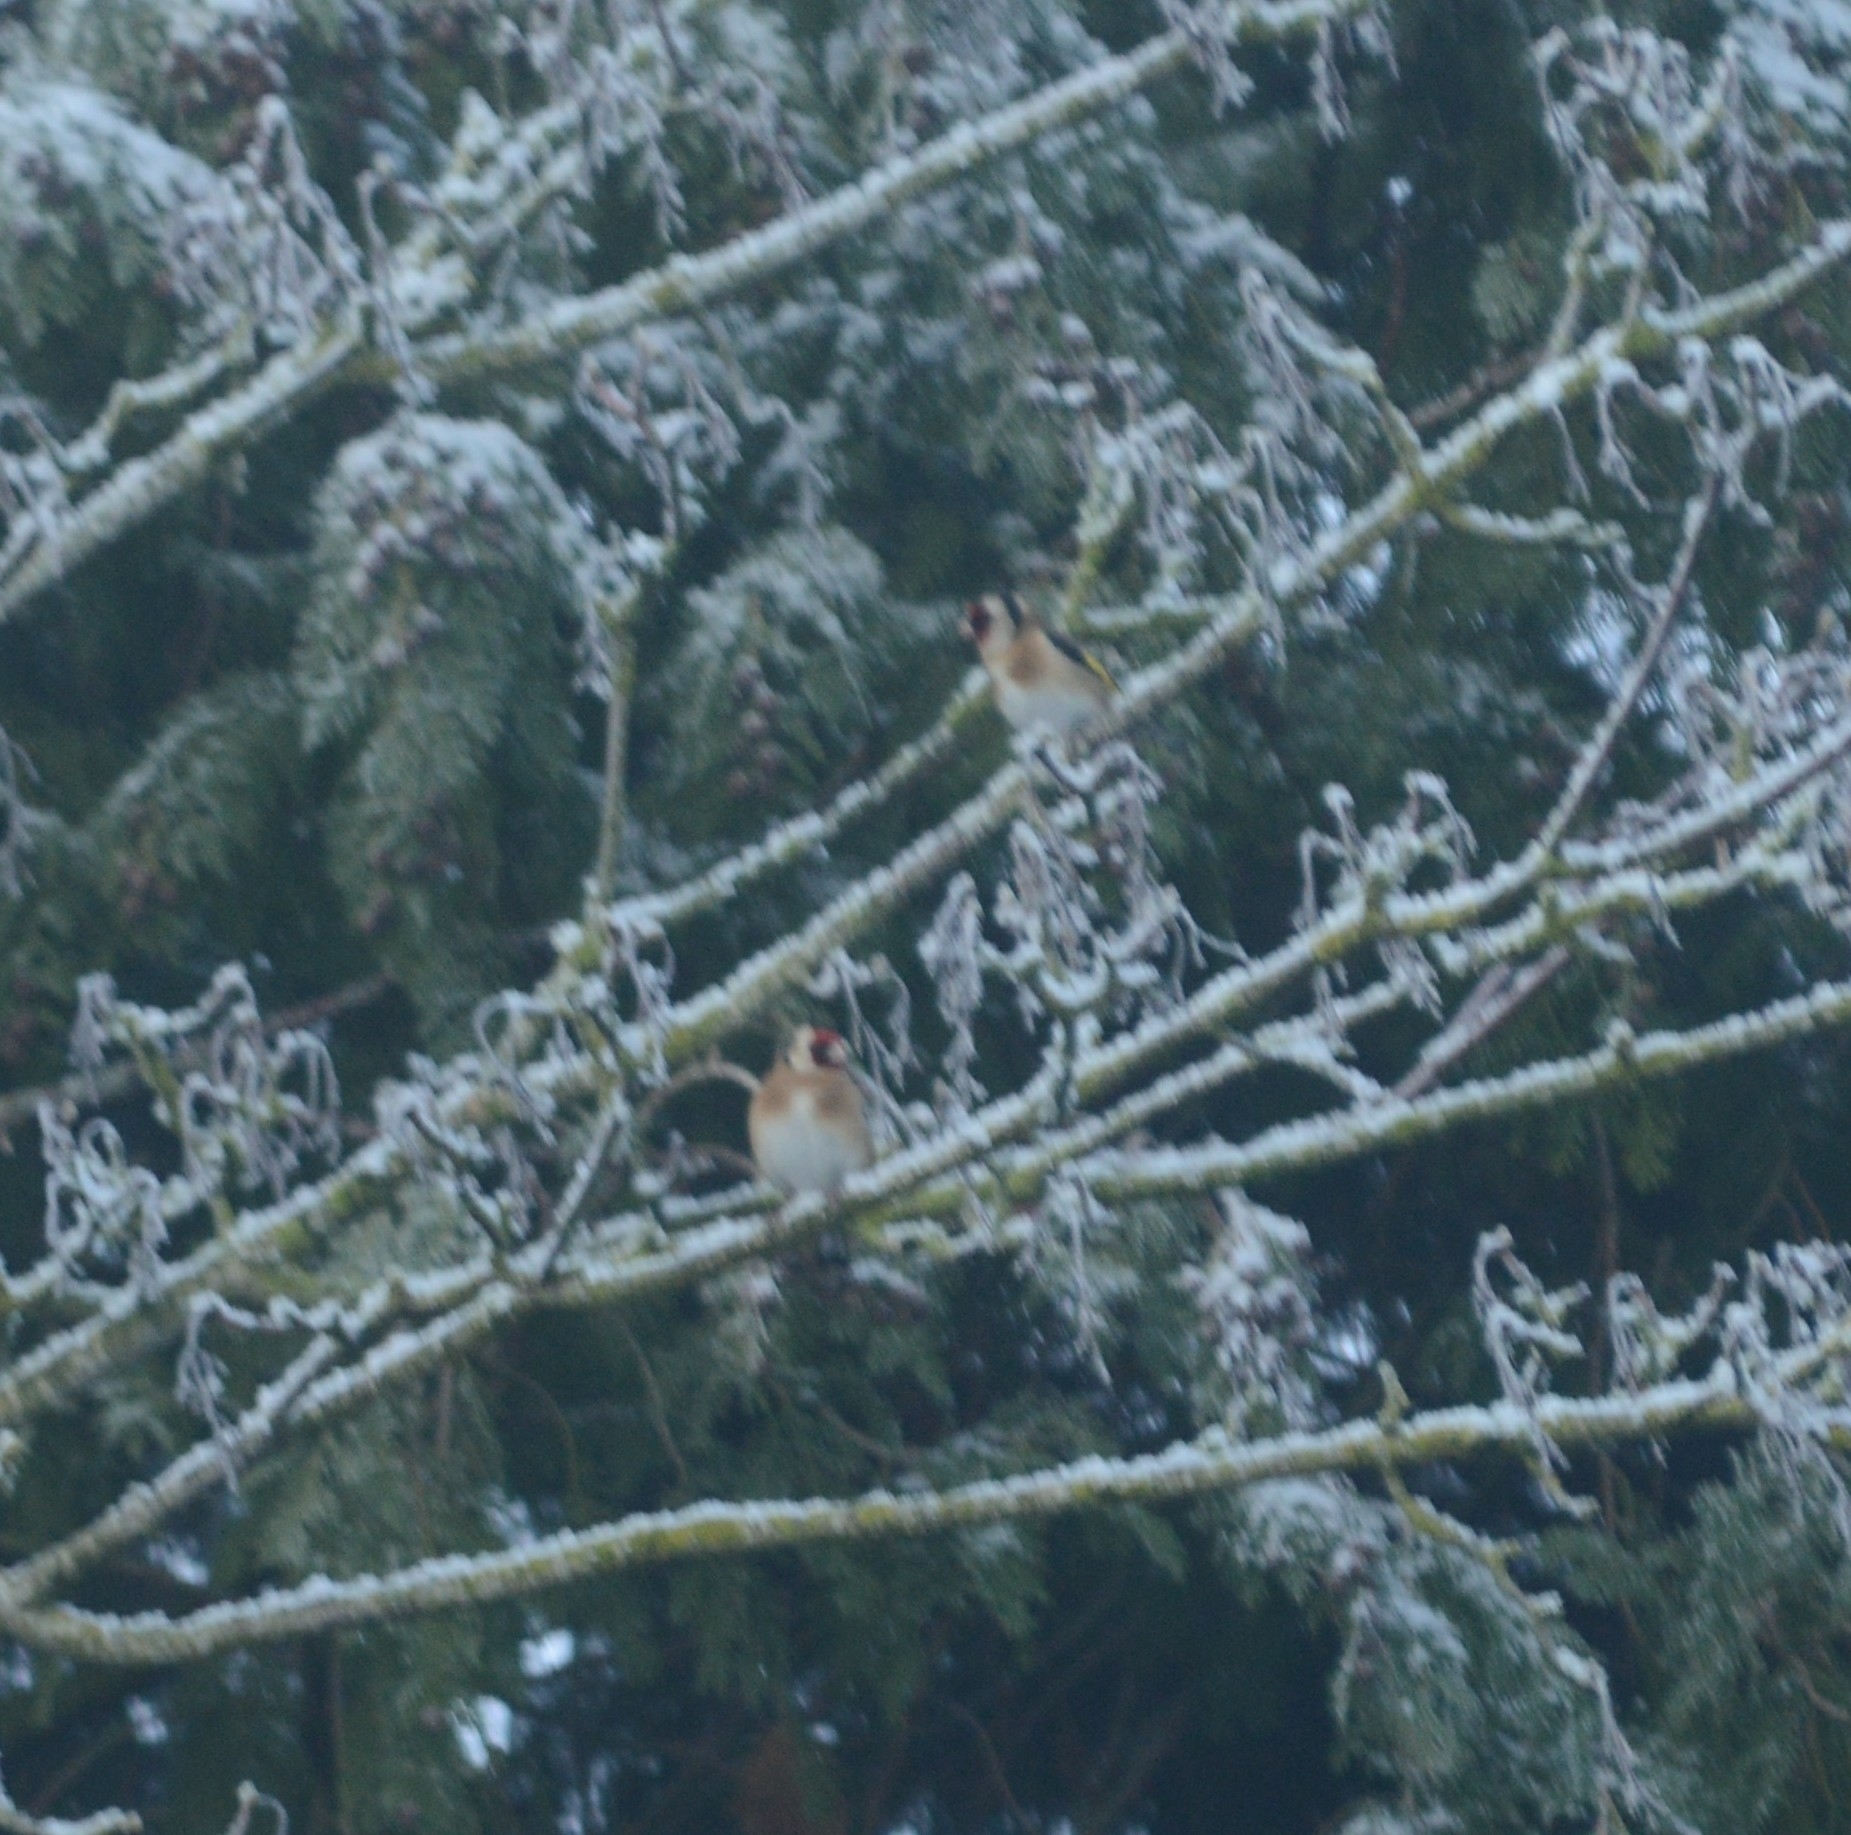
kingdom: Animalia
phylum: Chordata
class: Aves
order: Passeriformes
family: Fringillidae
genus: Carduelis
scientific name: Carduelis carduelis
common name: European goldfinch
